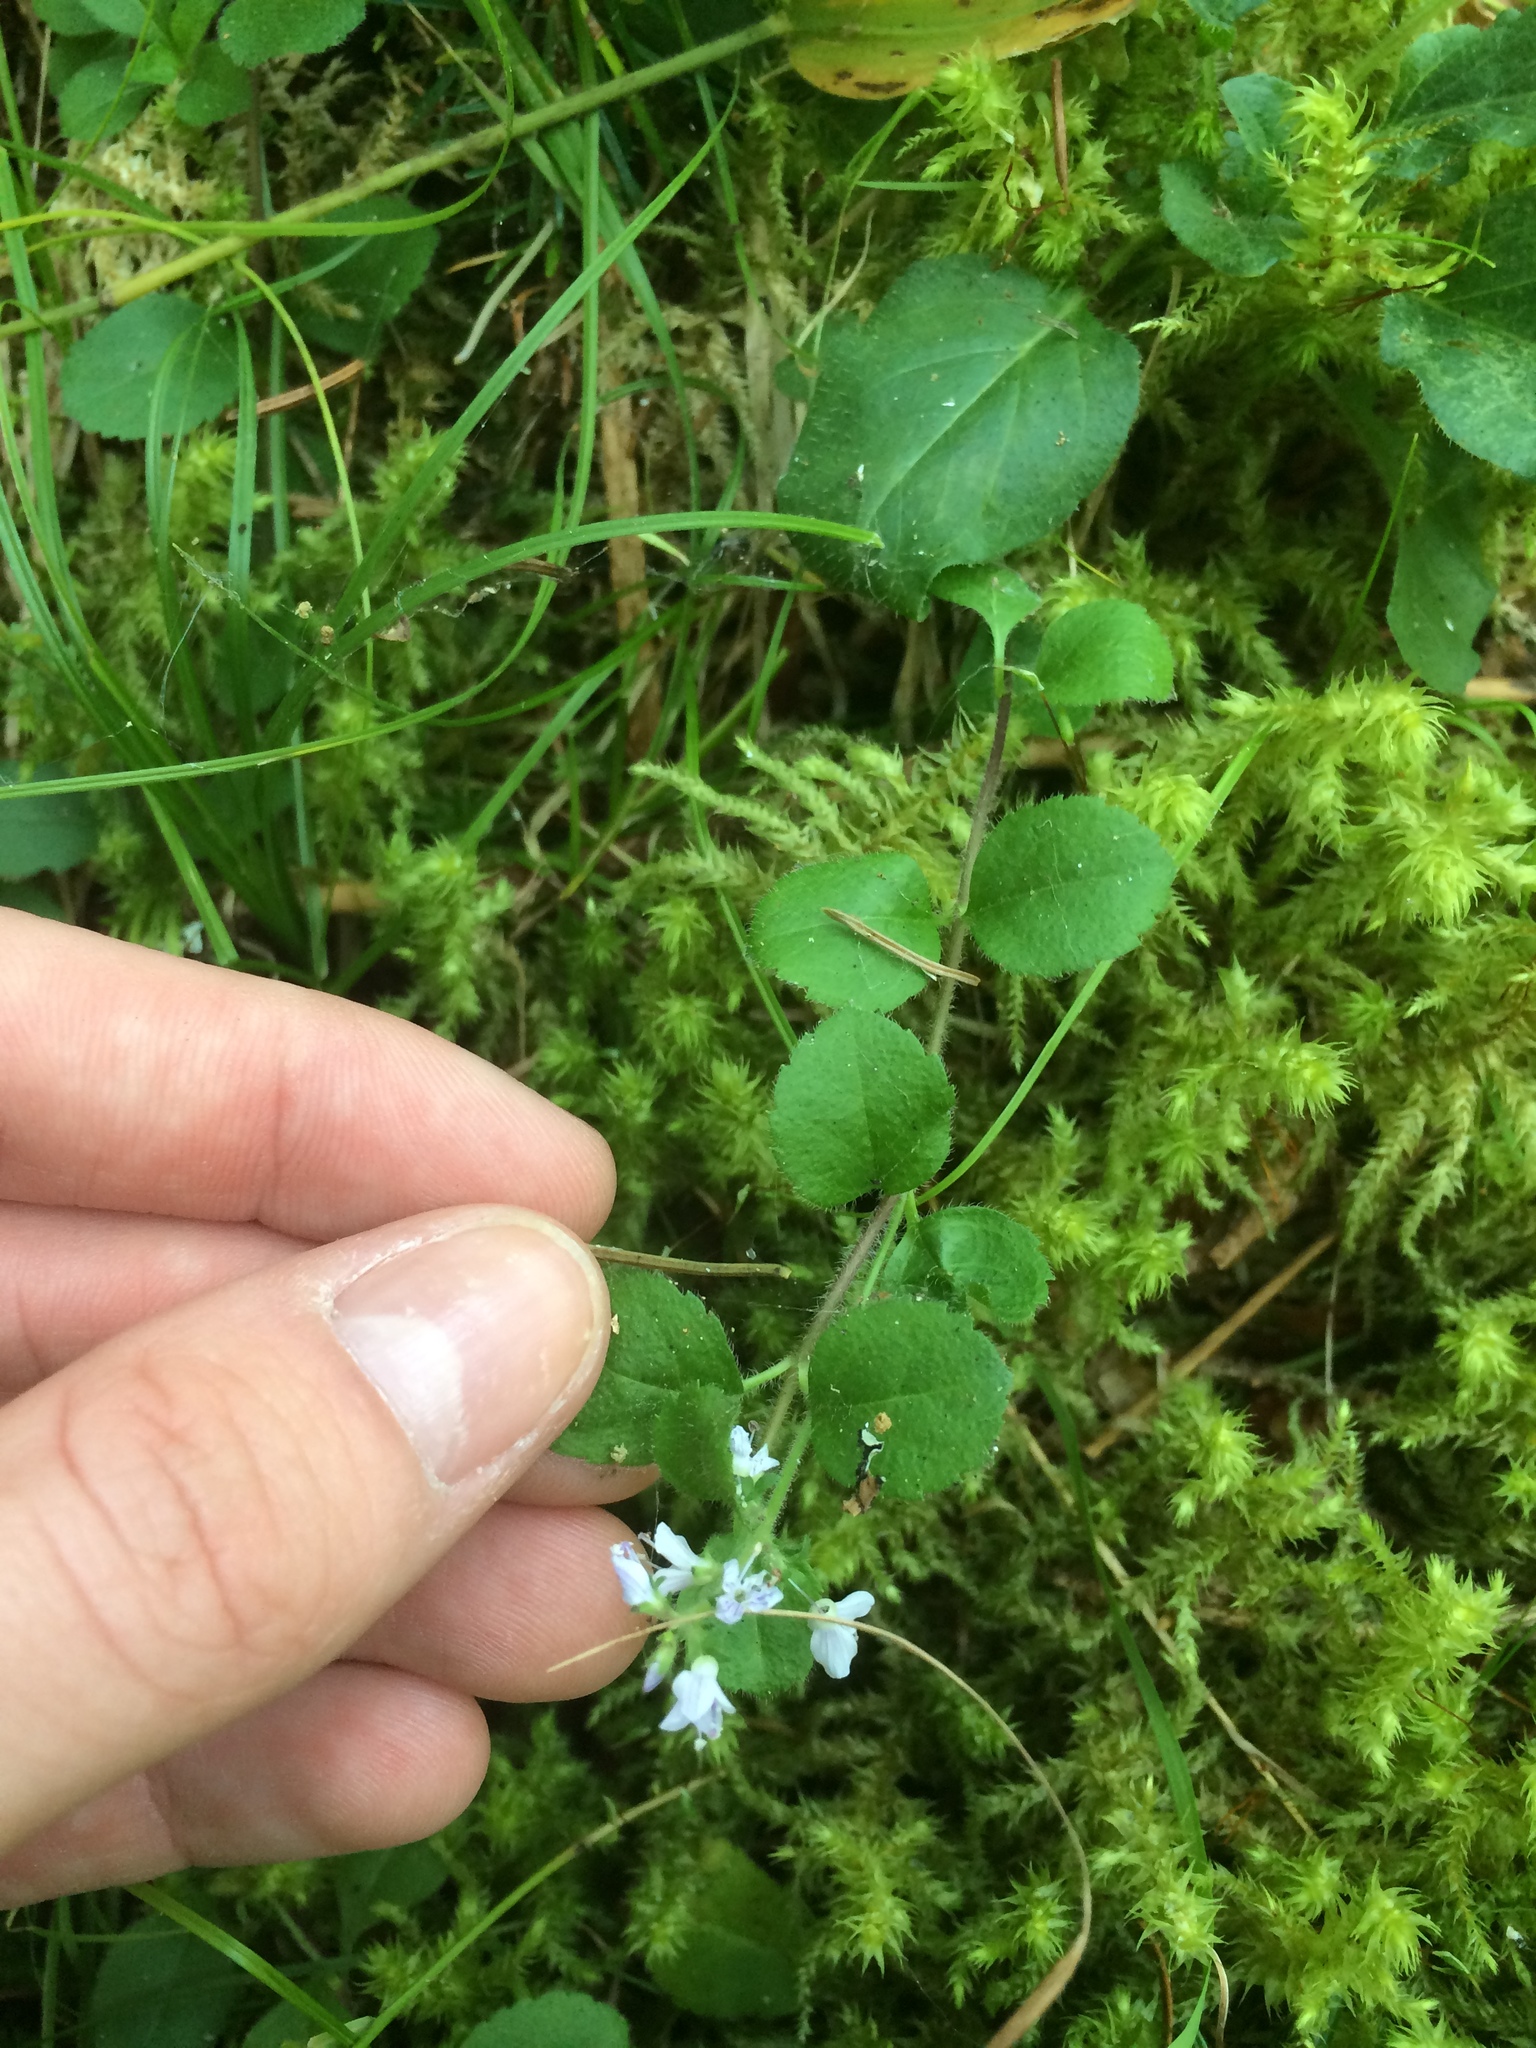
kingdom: Plantae
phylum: Tracheophyta
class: Magnoliopsida
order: Lamiales
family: Plantaginaceae
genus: Veronica
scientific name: Veronica officinalis
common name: Common speedwell
